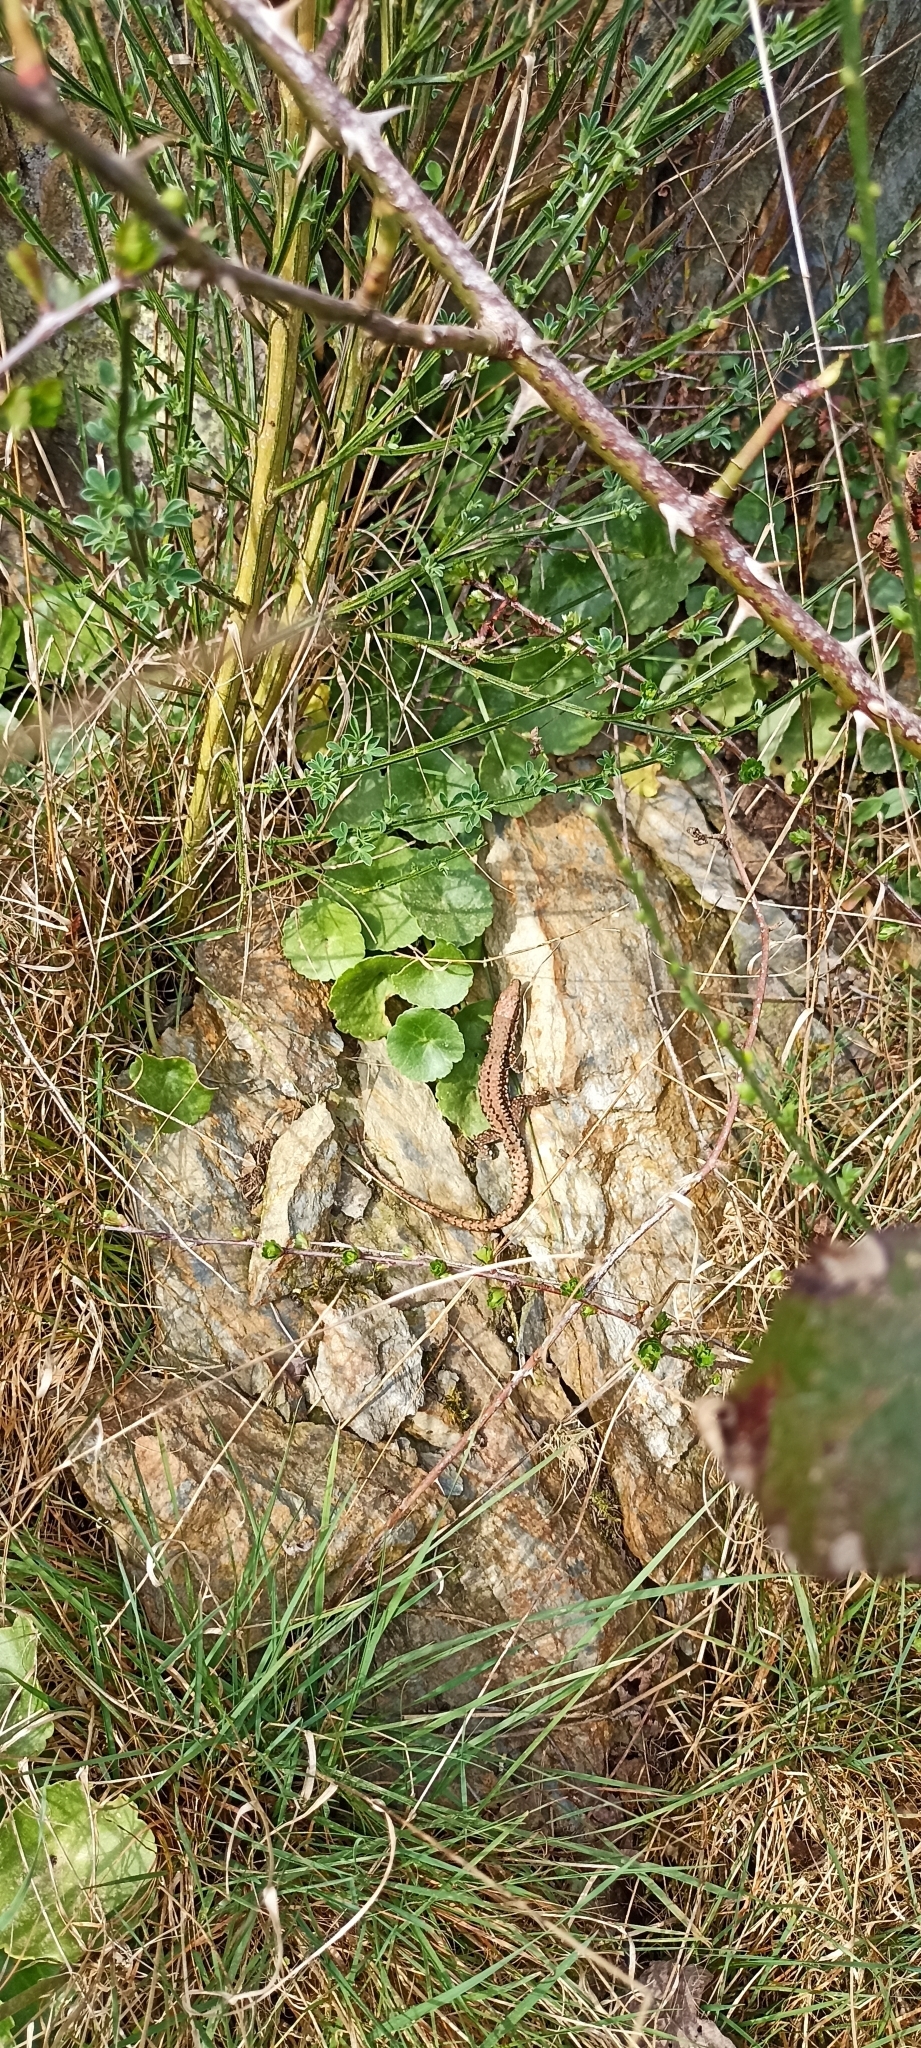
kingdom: Animalia
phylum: Chordata
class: Squamata
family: Lacertidae
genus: Podarcis
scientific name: Podarcis muralis
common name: Common wall lizard
